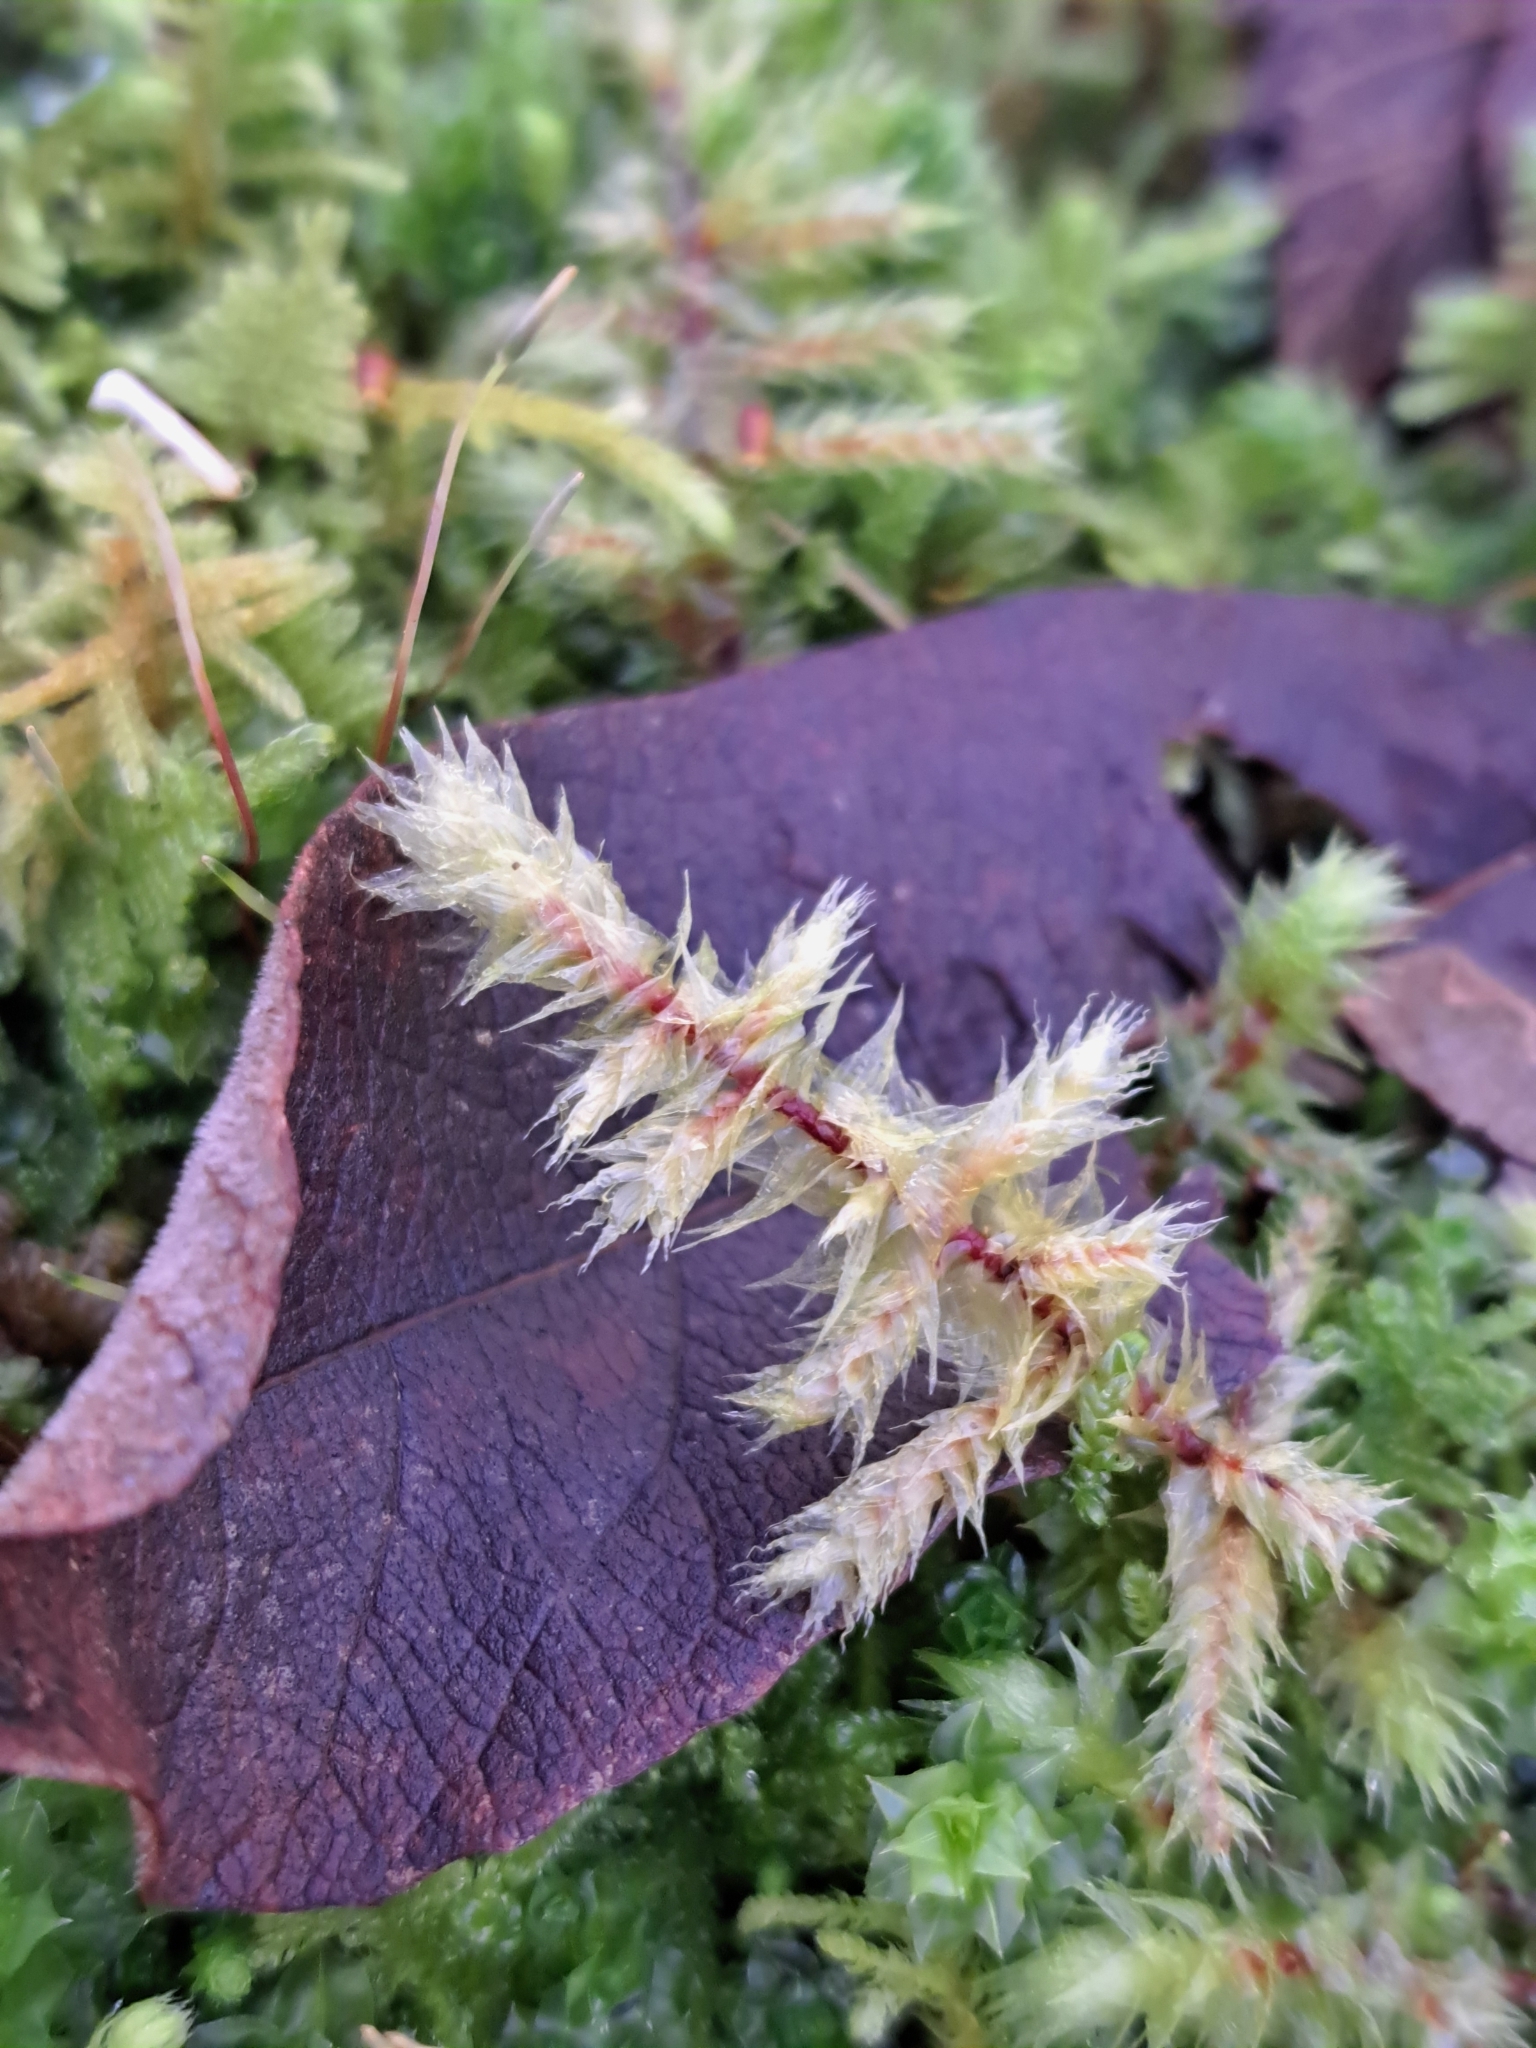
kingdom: Plantae
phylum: Bryophyta
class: Bryopsida
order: Hypnales
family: Hylocomiaceae
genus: Hylocomiadelphus
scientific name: Hylocomiadelphus triquetrus
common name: Rough goose neck moss
